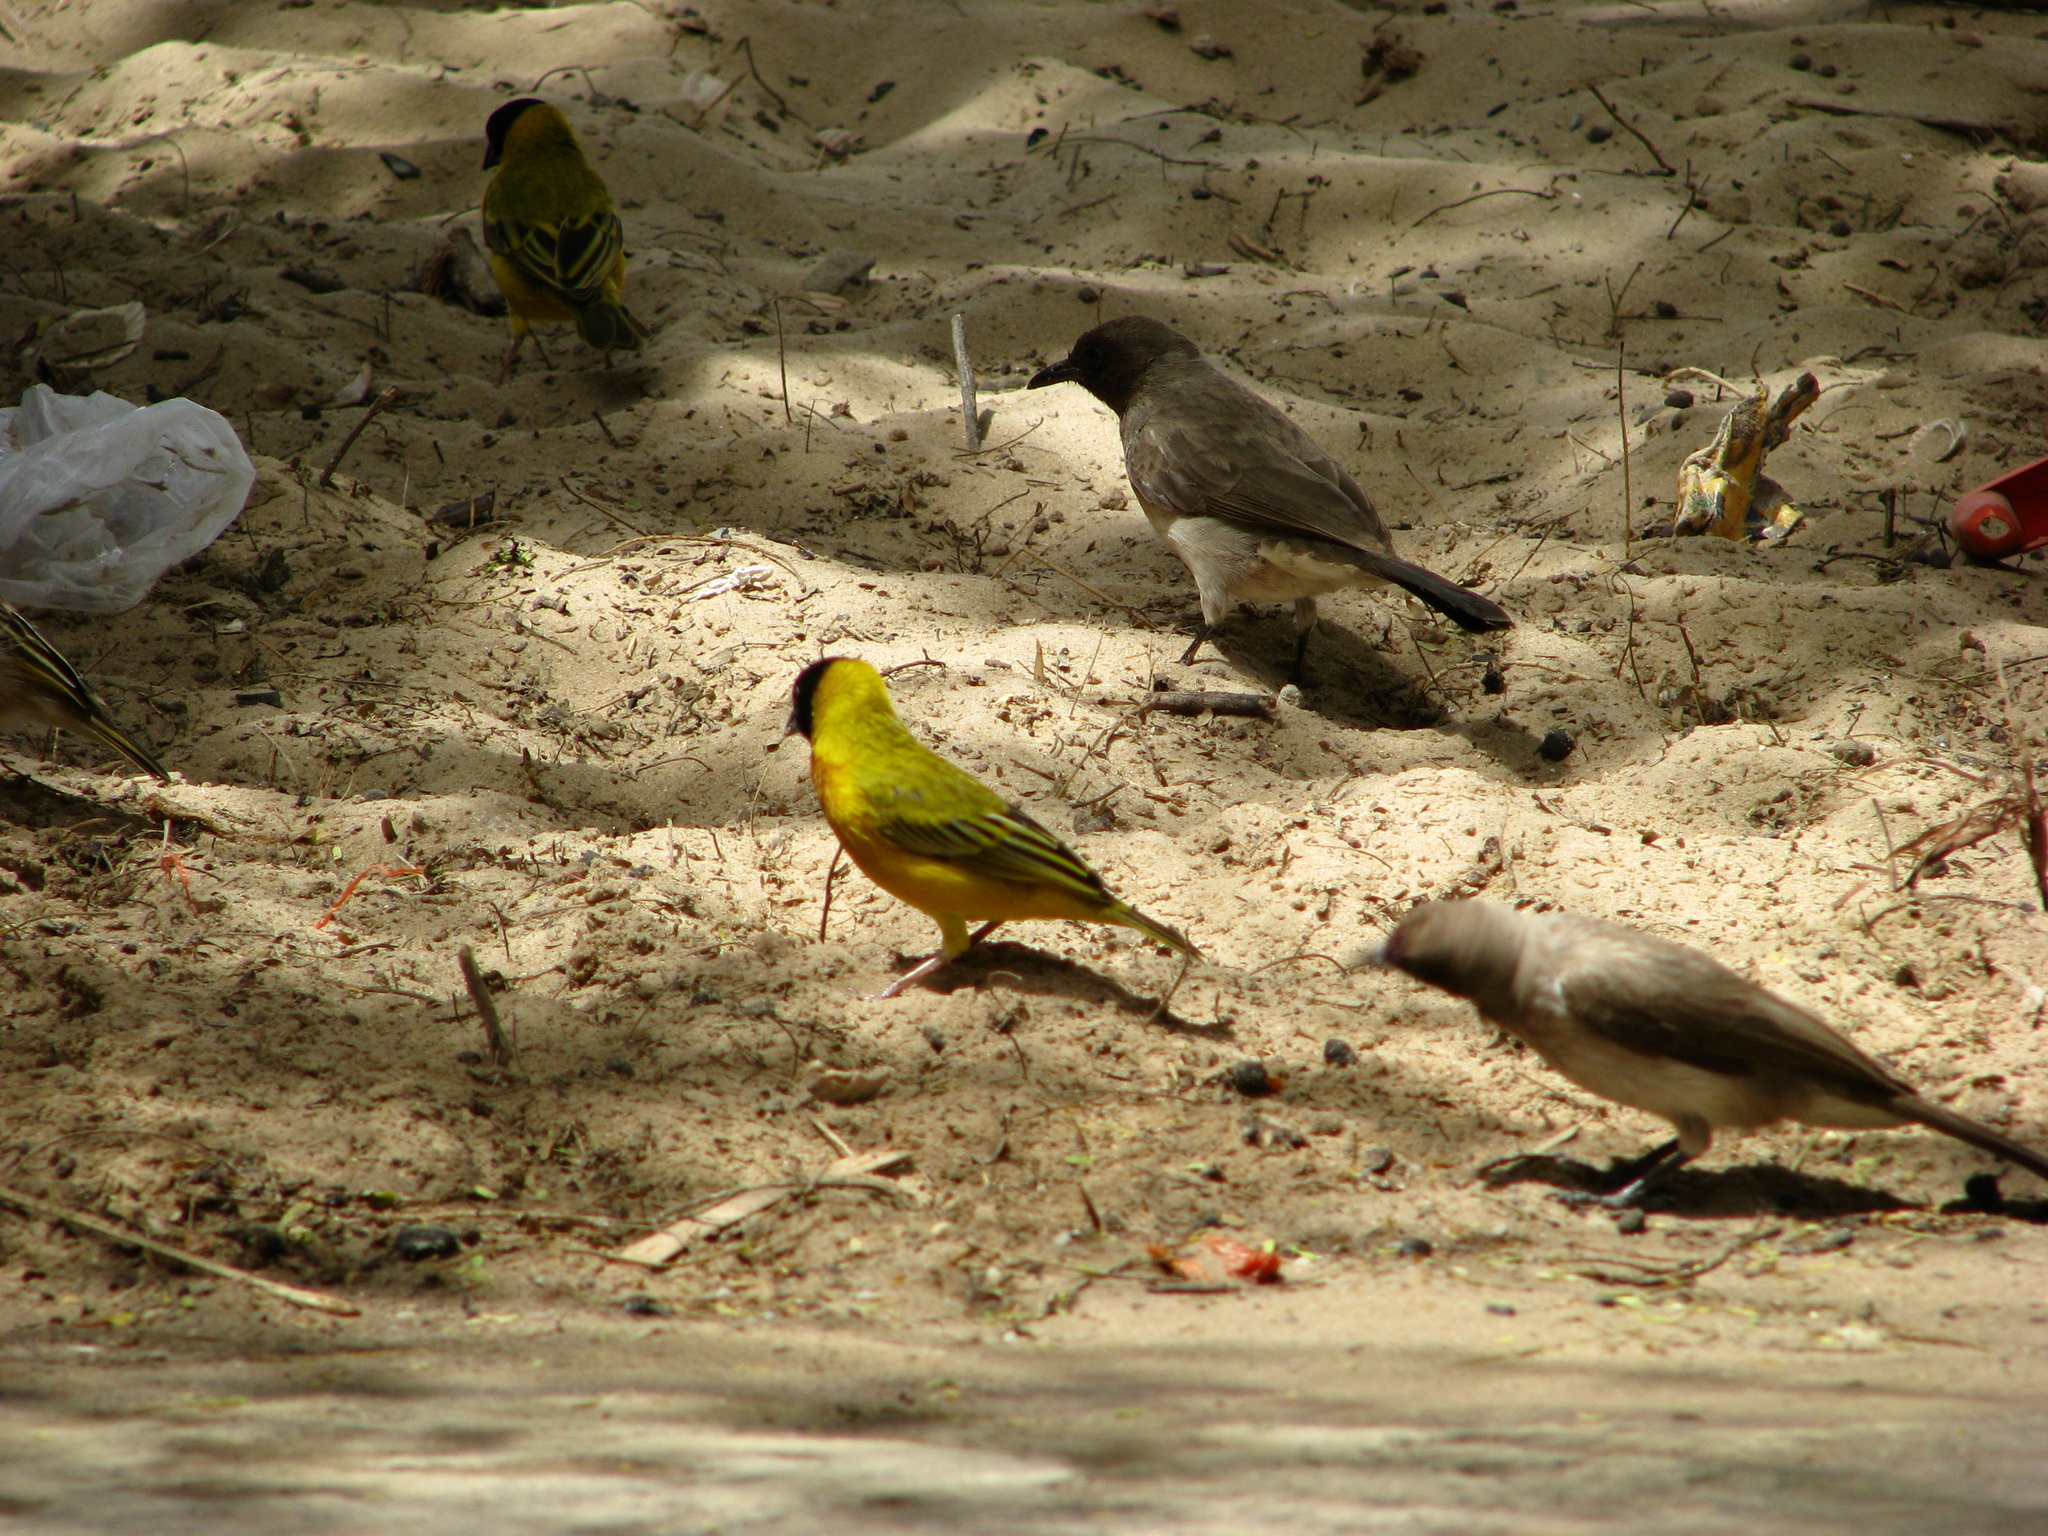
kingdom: Animalia
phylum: Chordata
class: Aves
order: Passeriformes
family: Ploceidae
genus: Ploceus
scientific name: Ploceus melanocephalus
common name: Black-headed weaver
